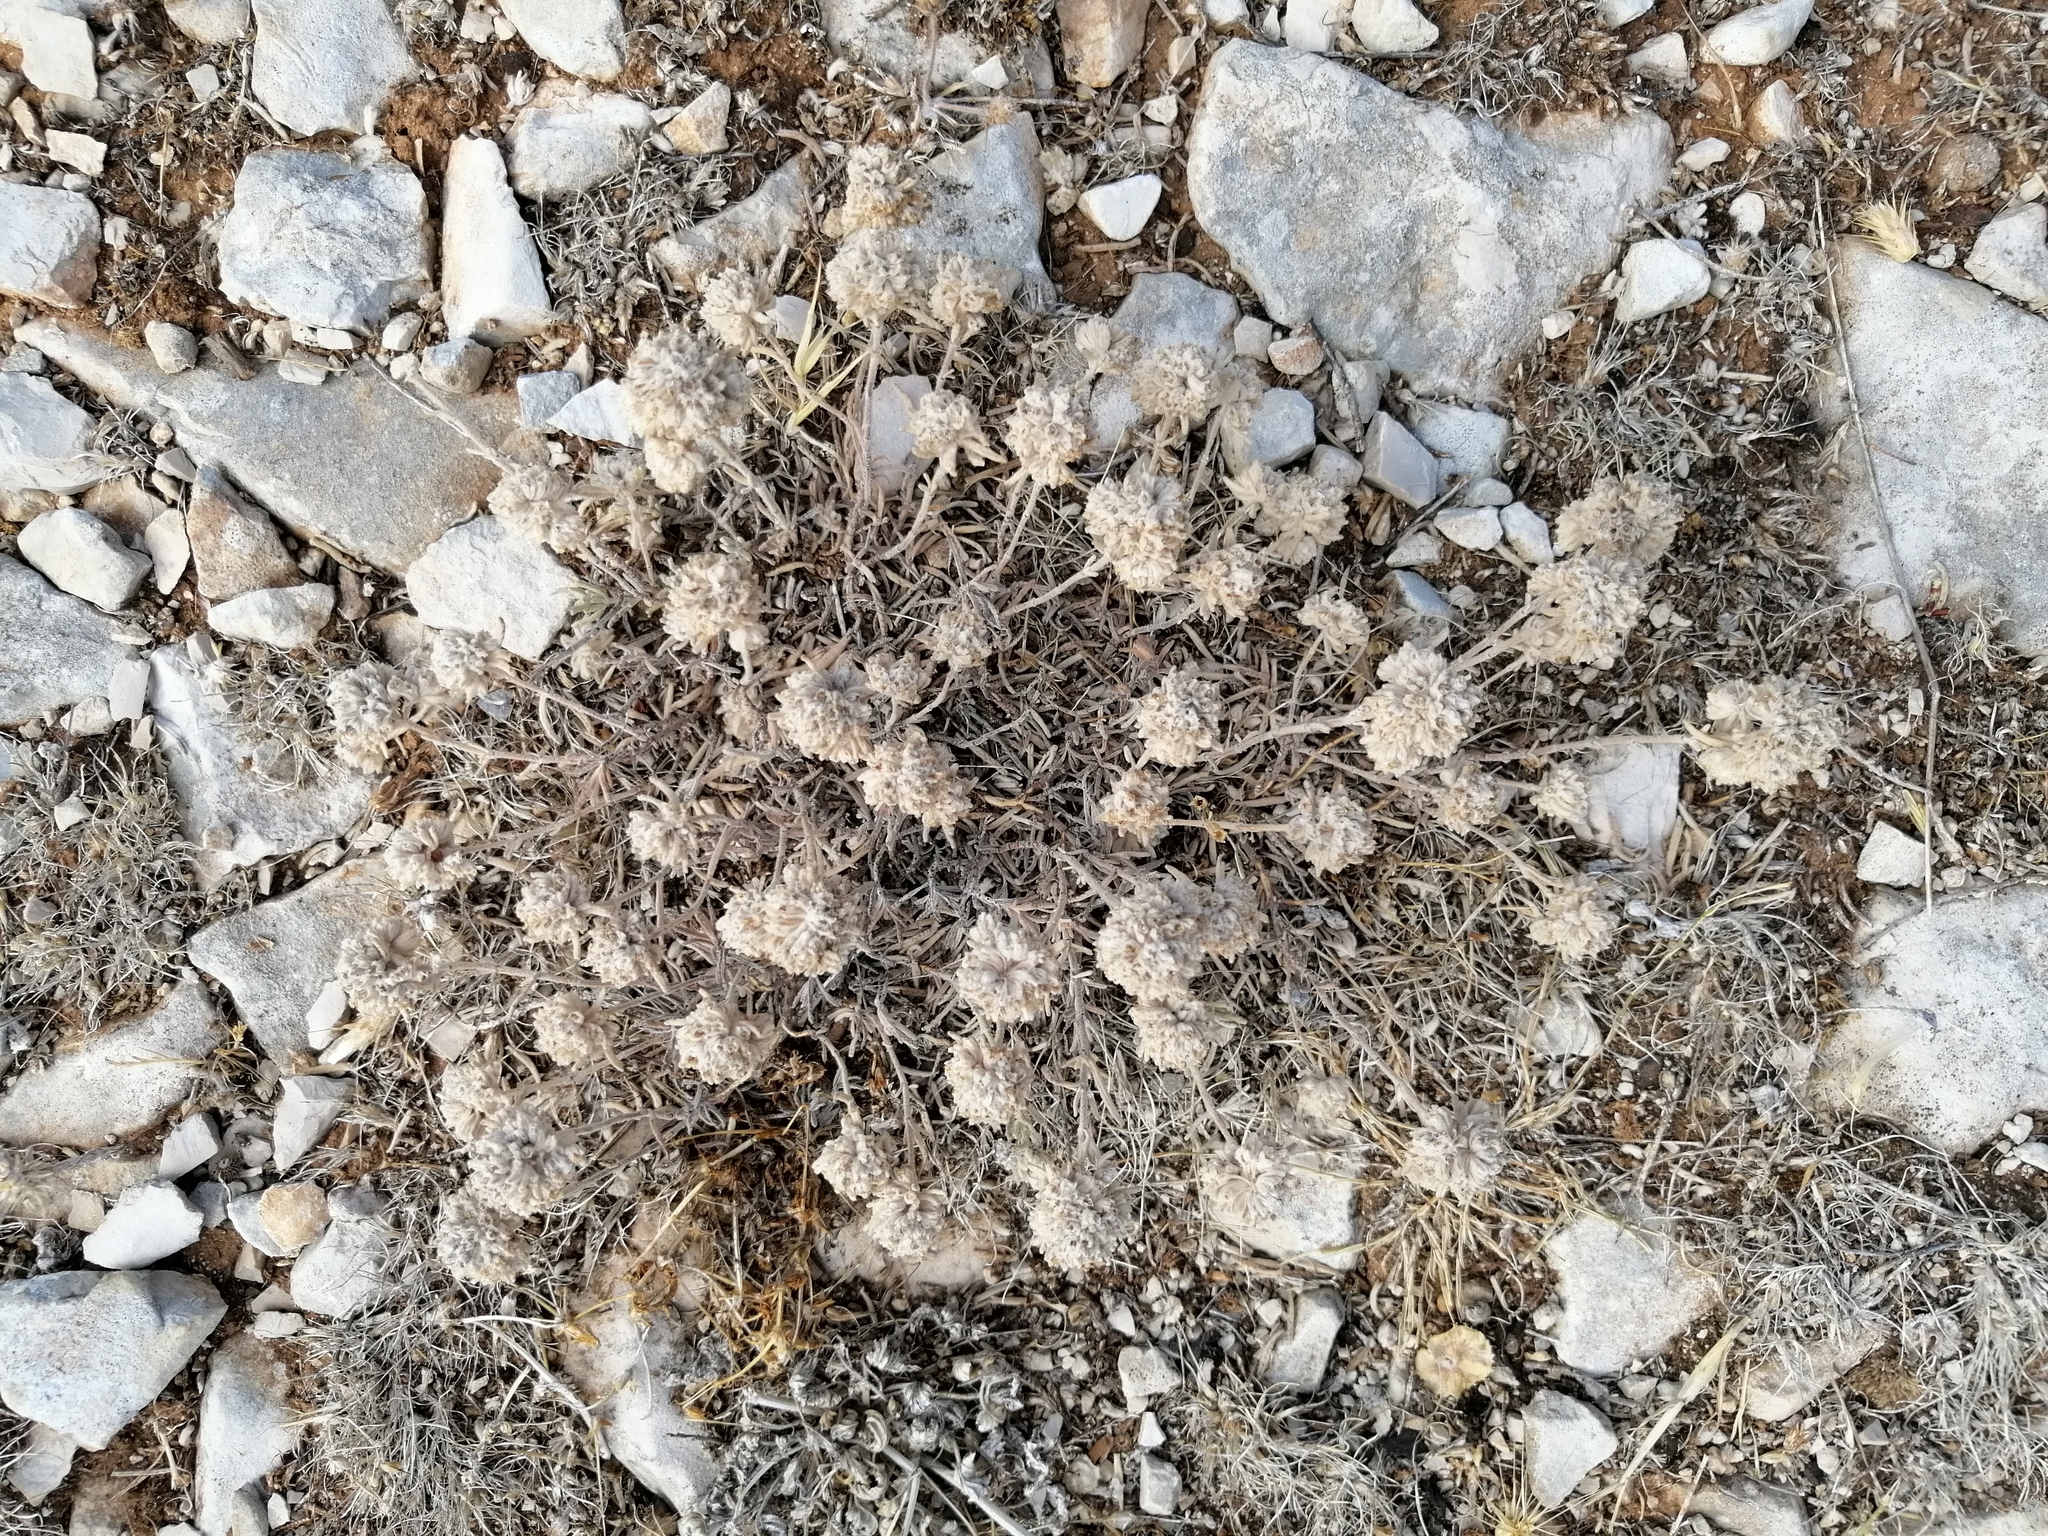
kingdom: Plantae
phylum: Tracheophyta
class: Magnoliopsida
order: Lamiales
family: Lamiaceae
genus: Teucrium
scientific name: Teucrium capitatum
